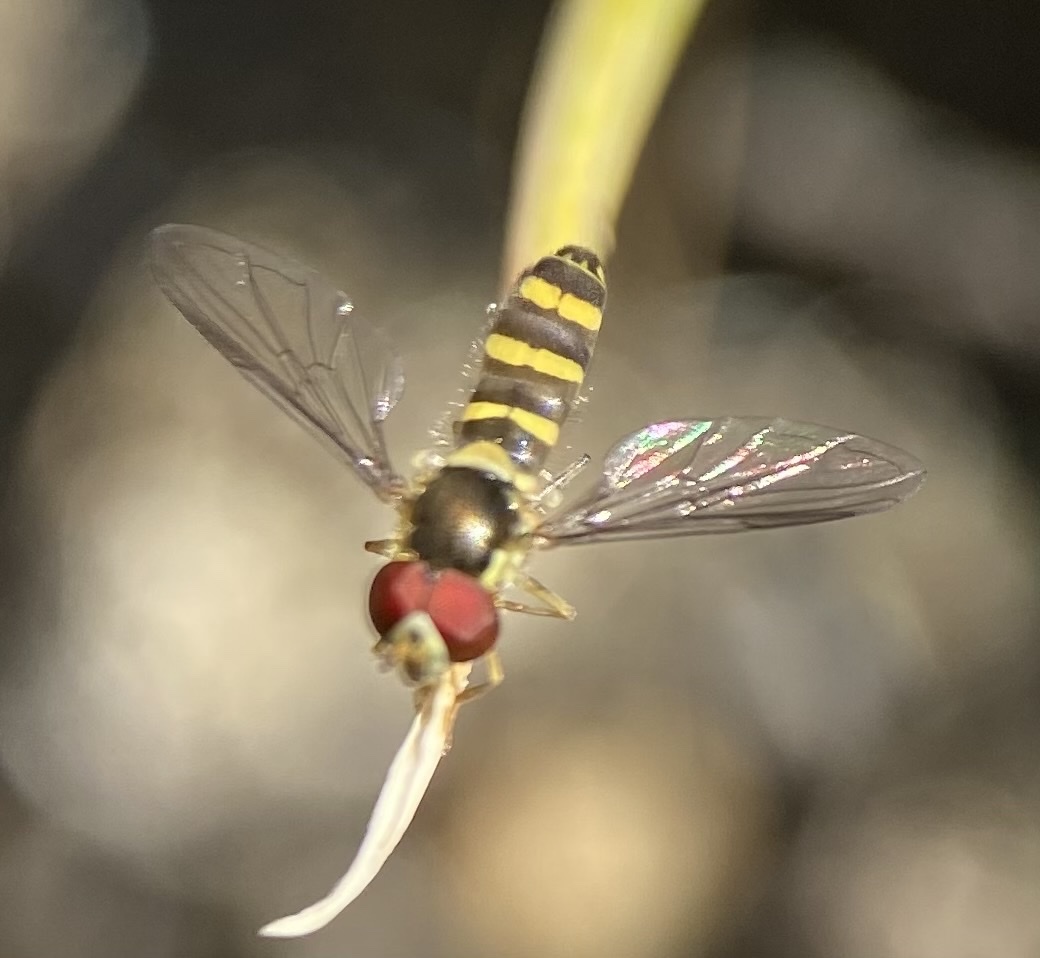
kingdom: Animalia
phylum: Arthropoda
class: Insecta
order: Diptera
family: Syrphidae
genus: Fazia
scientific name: Fazia micrura
